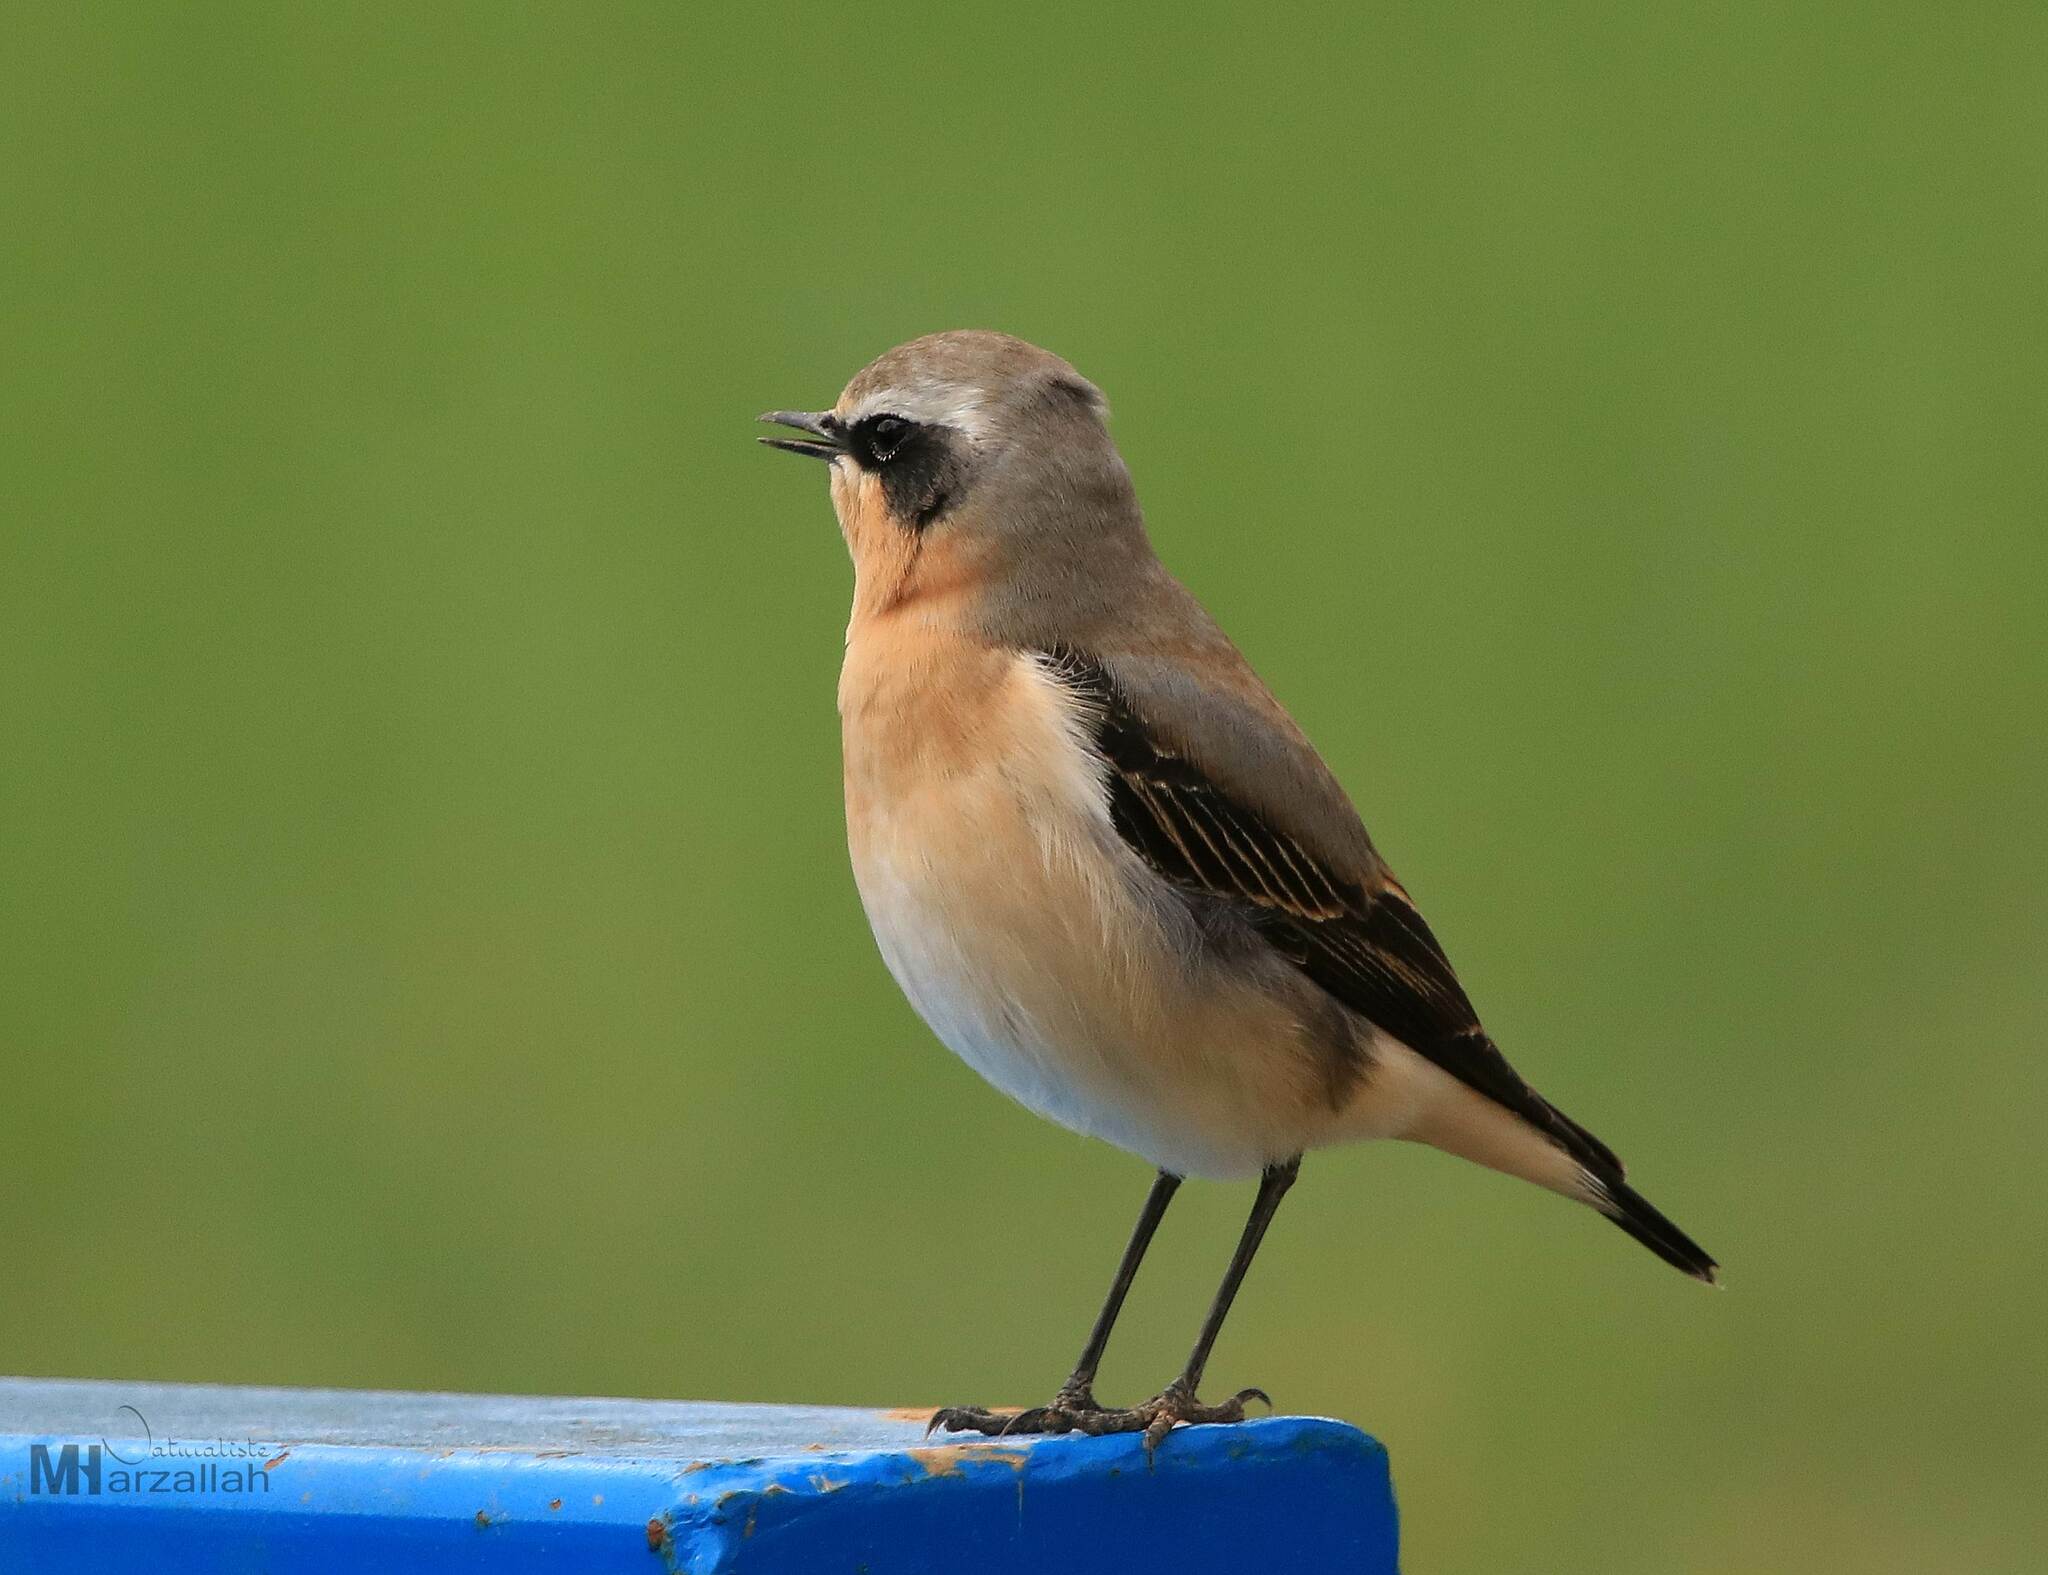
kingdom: Animalia
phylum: Chordata
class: Aves
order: Passeriformes
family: Muscicapidae
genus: Oenanthe
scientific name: Oenanthe oenanthe
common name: Northern wheatear
